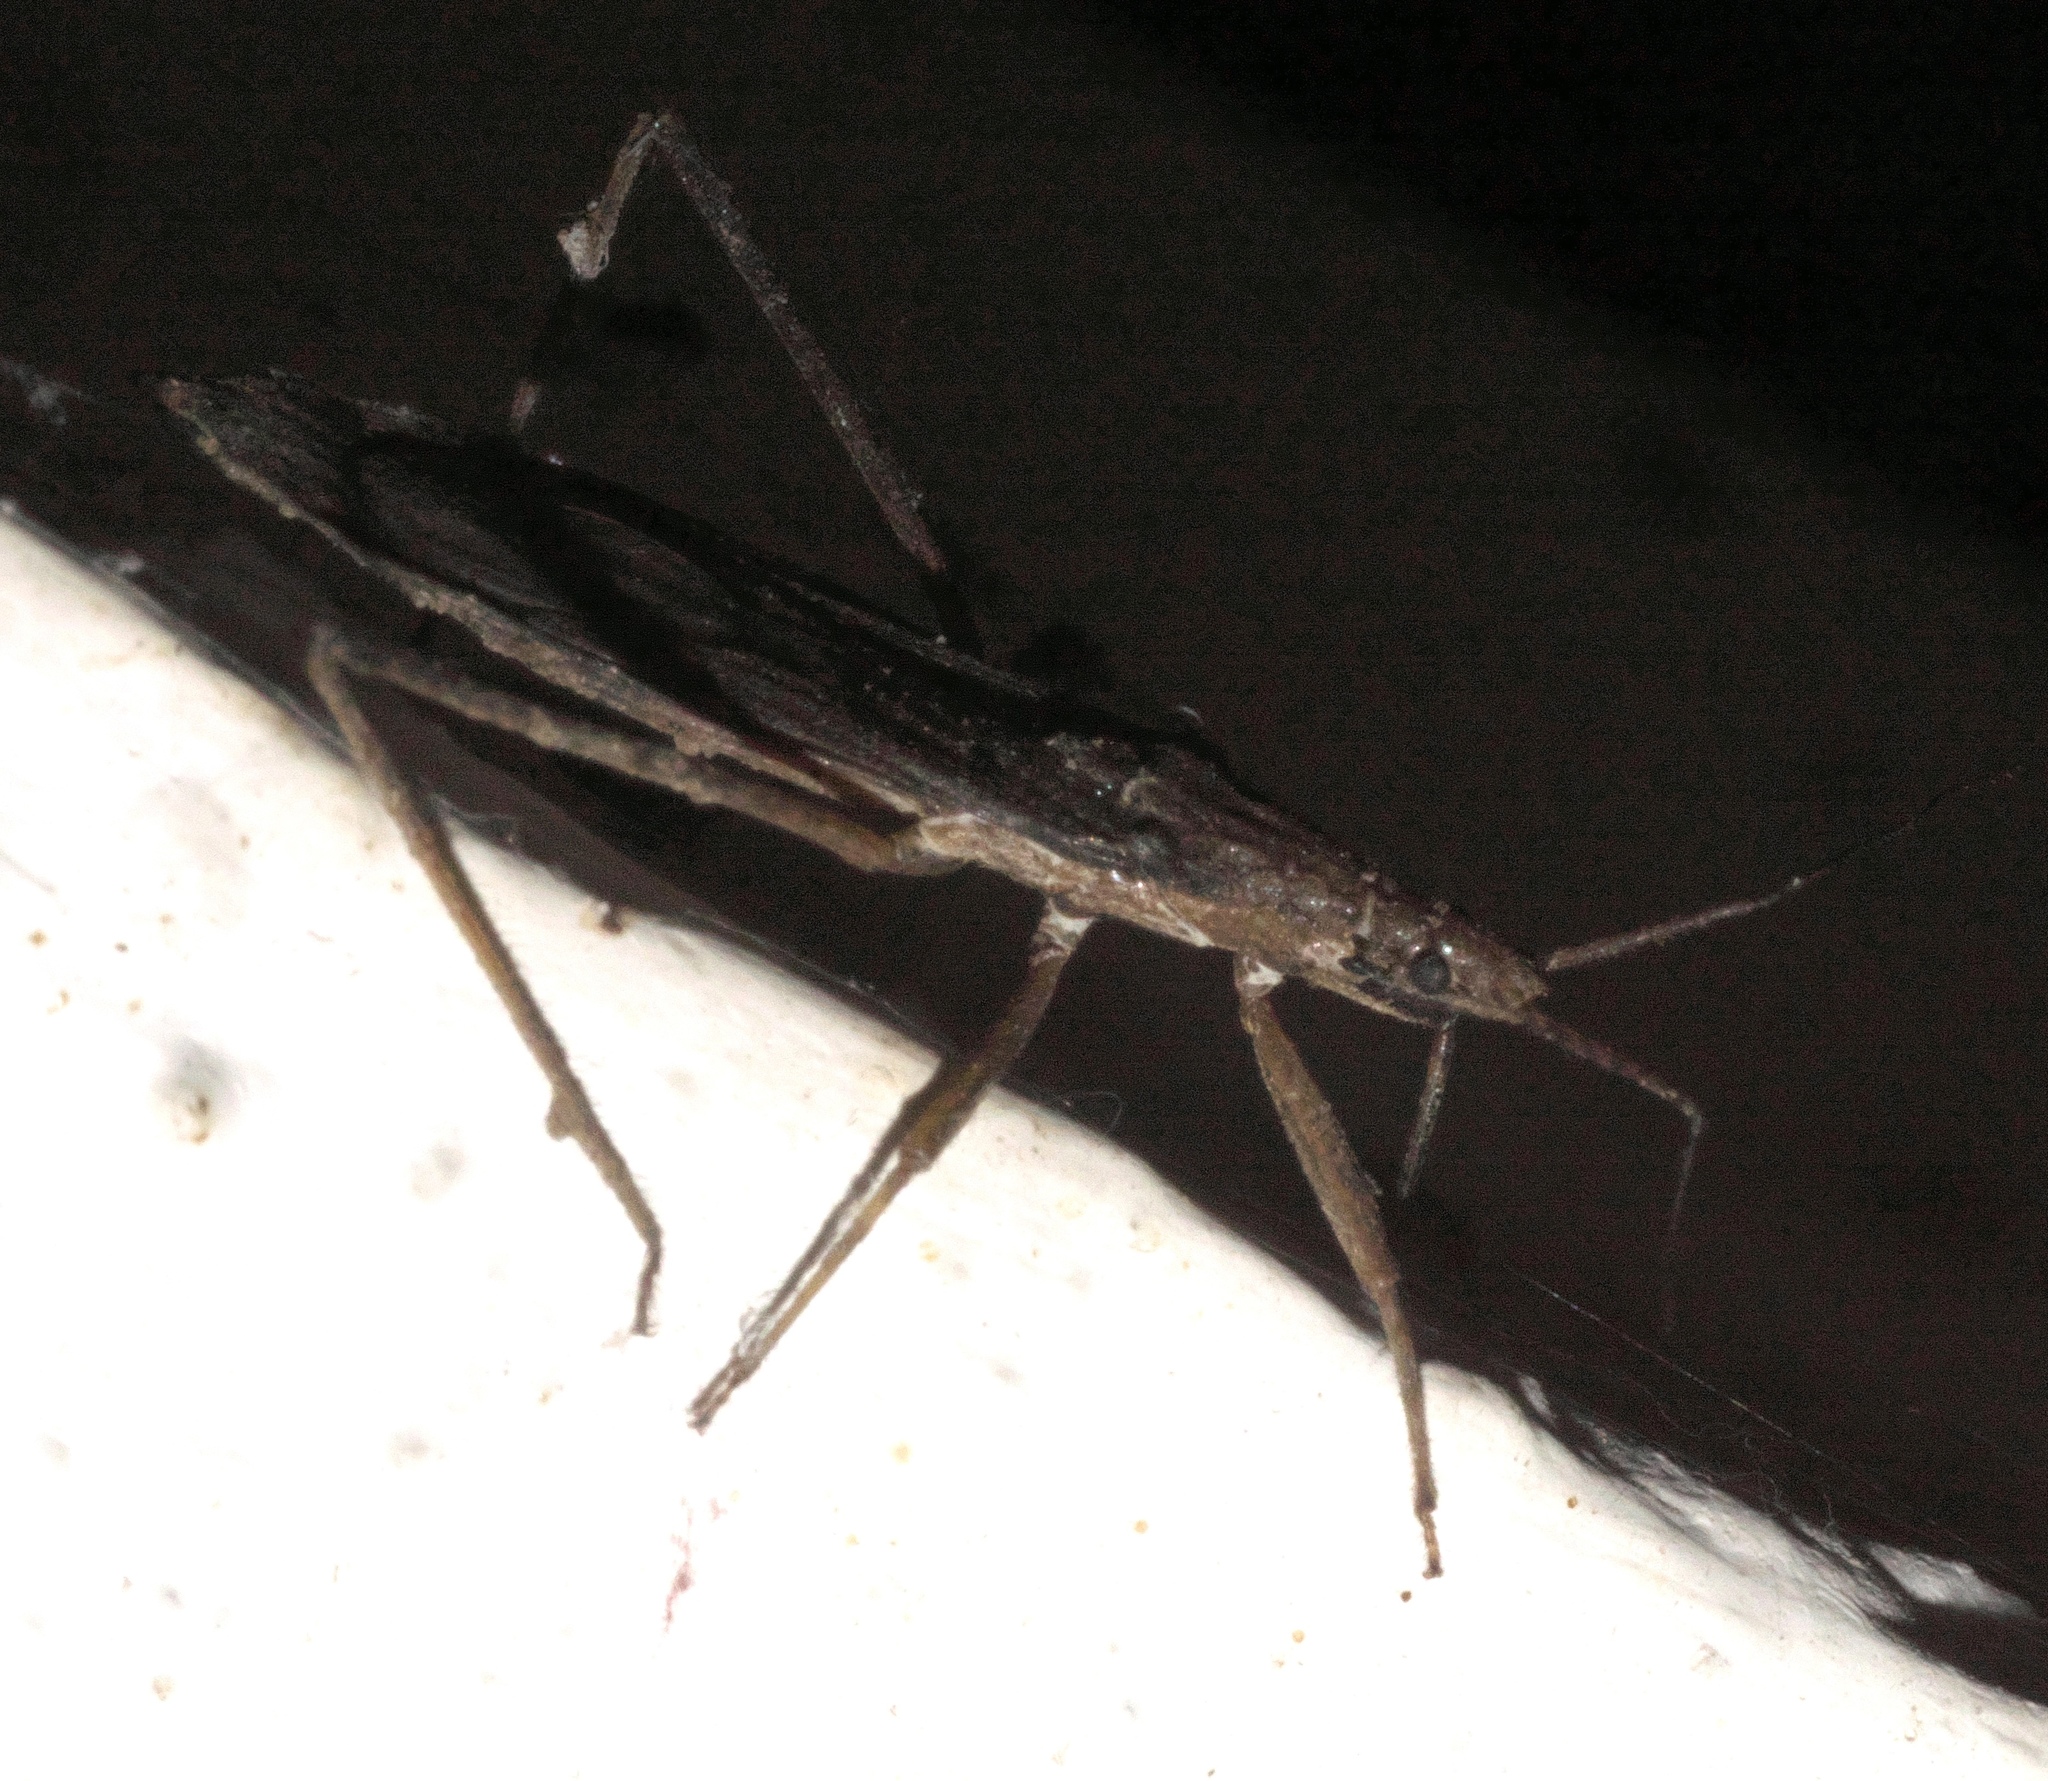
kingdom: Animalia
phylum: Arthropoda
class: Insecta
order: Hemiptera
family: Reduviidae
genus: Pygolampis
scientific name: Pygolampis pectoralis
